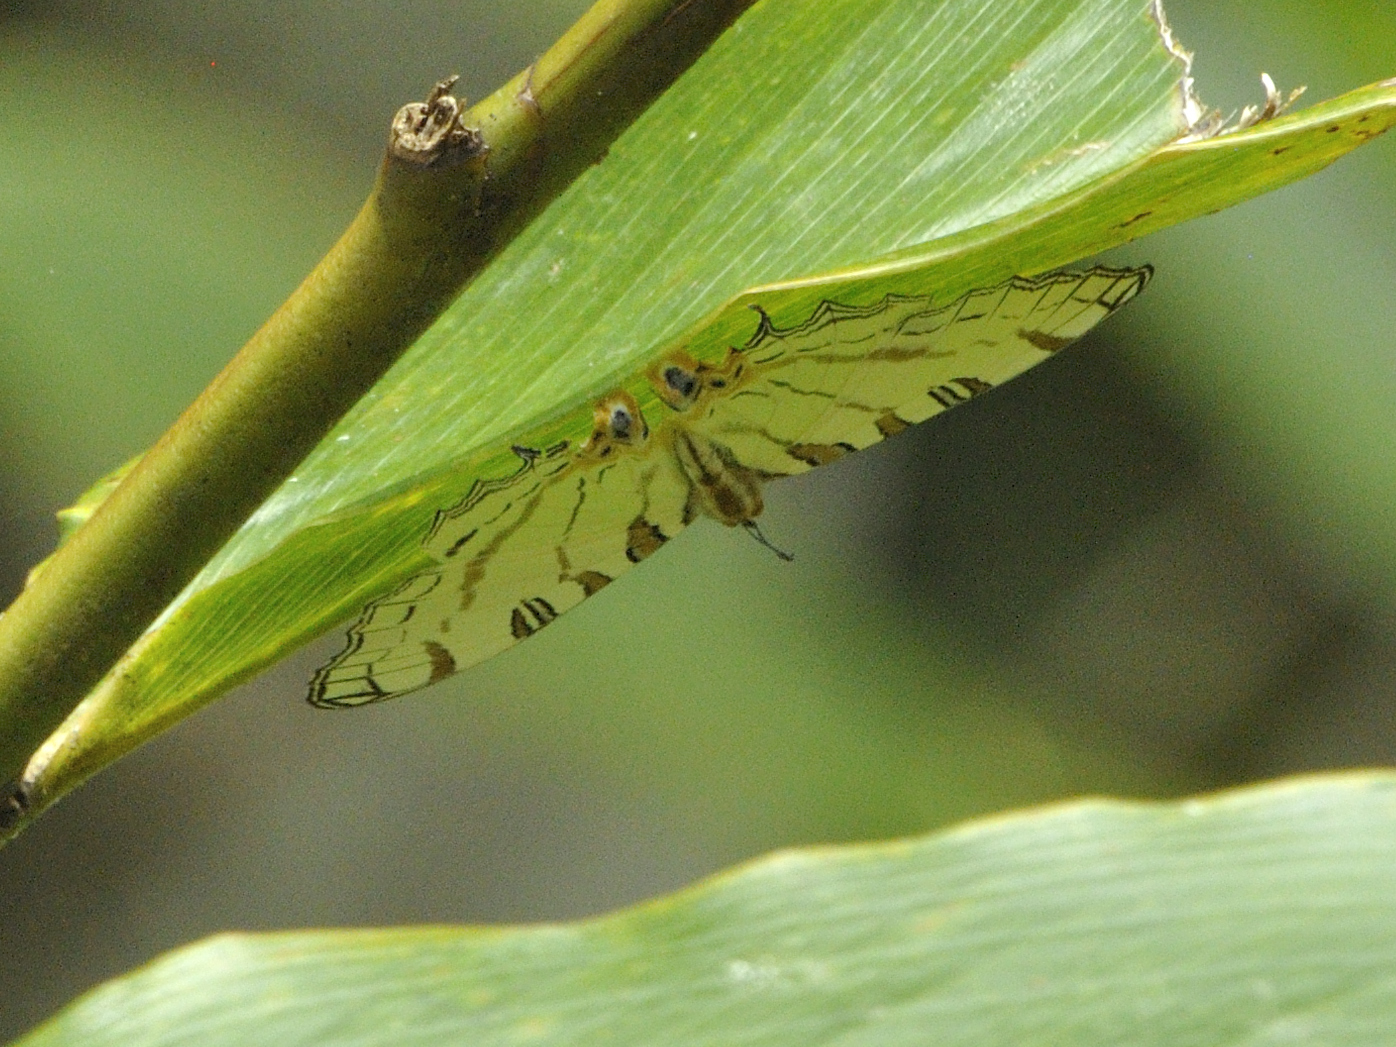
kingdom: Animalia
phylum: Arthropoda
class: Insecta
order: Lepidoptera
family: Nymphalidae
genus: Marpesia
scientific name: Marpesia camillus
